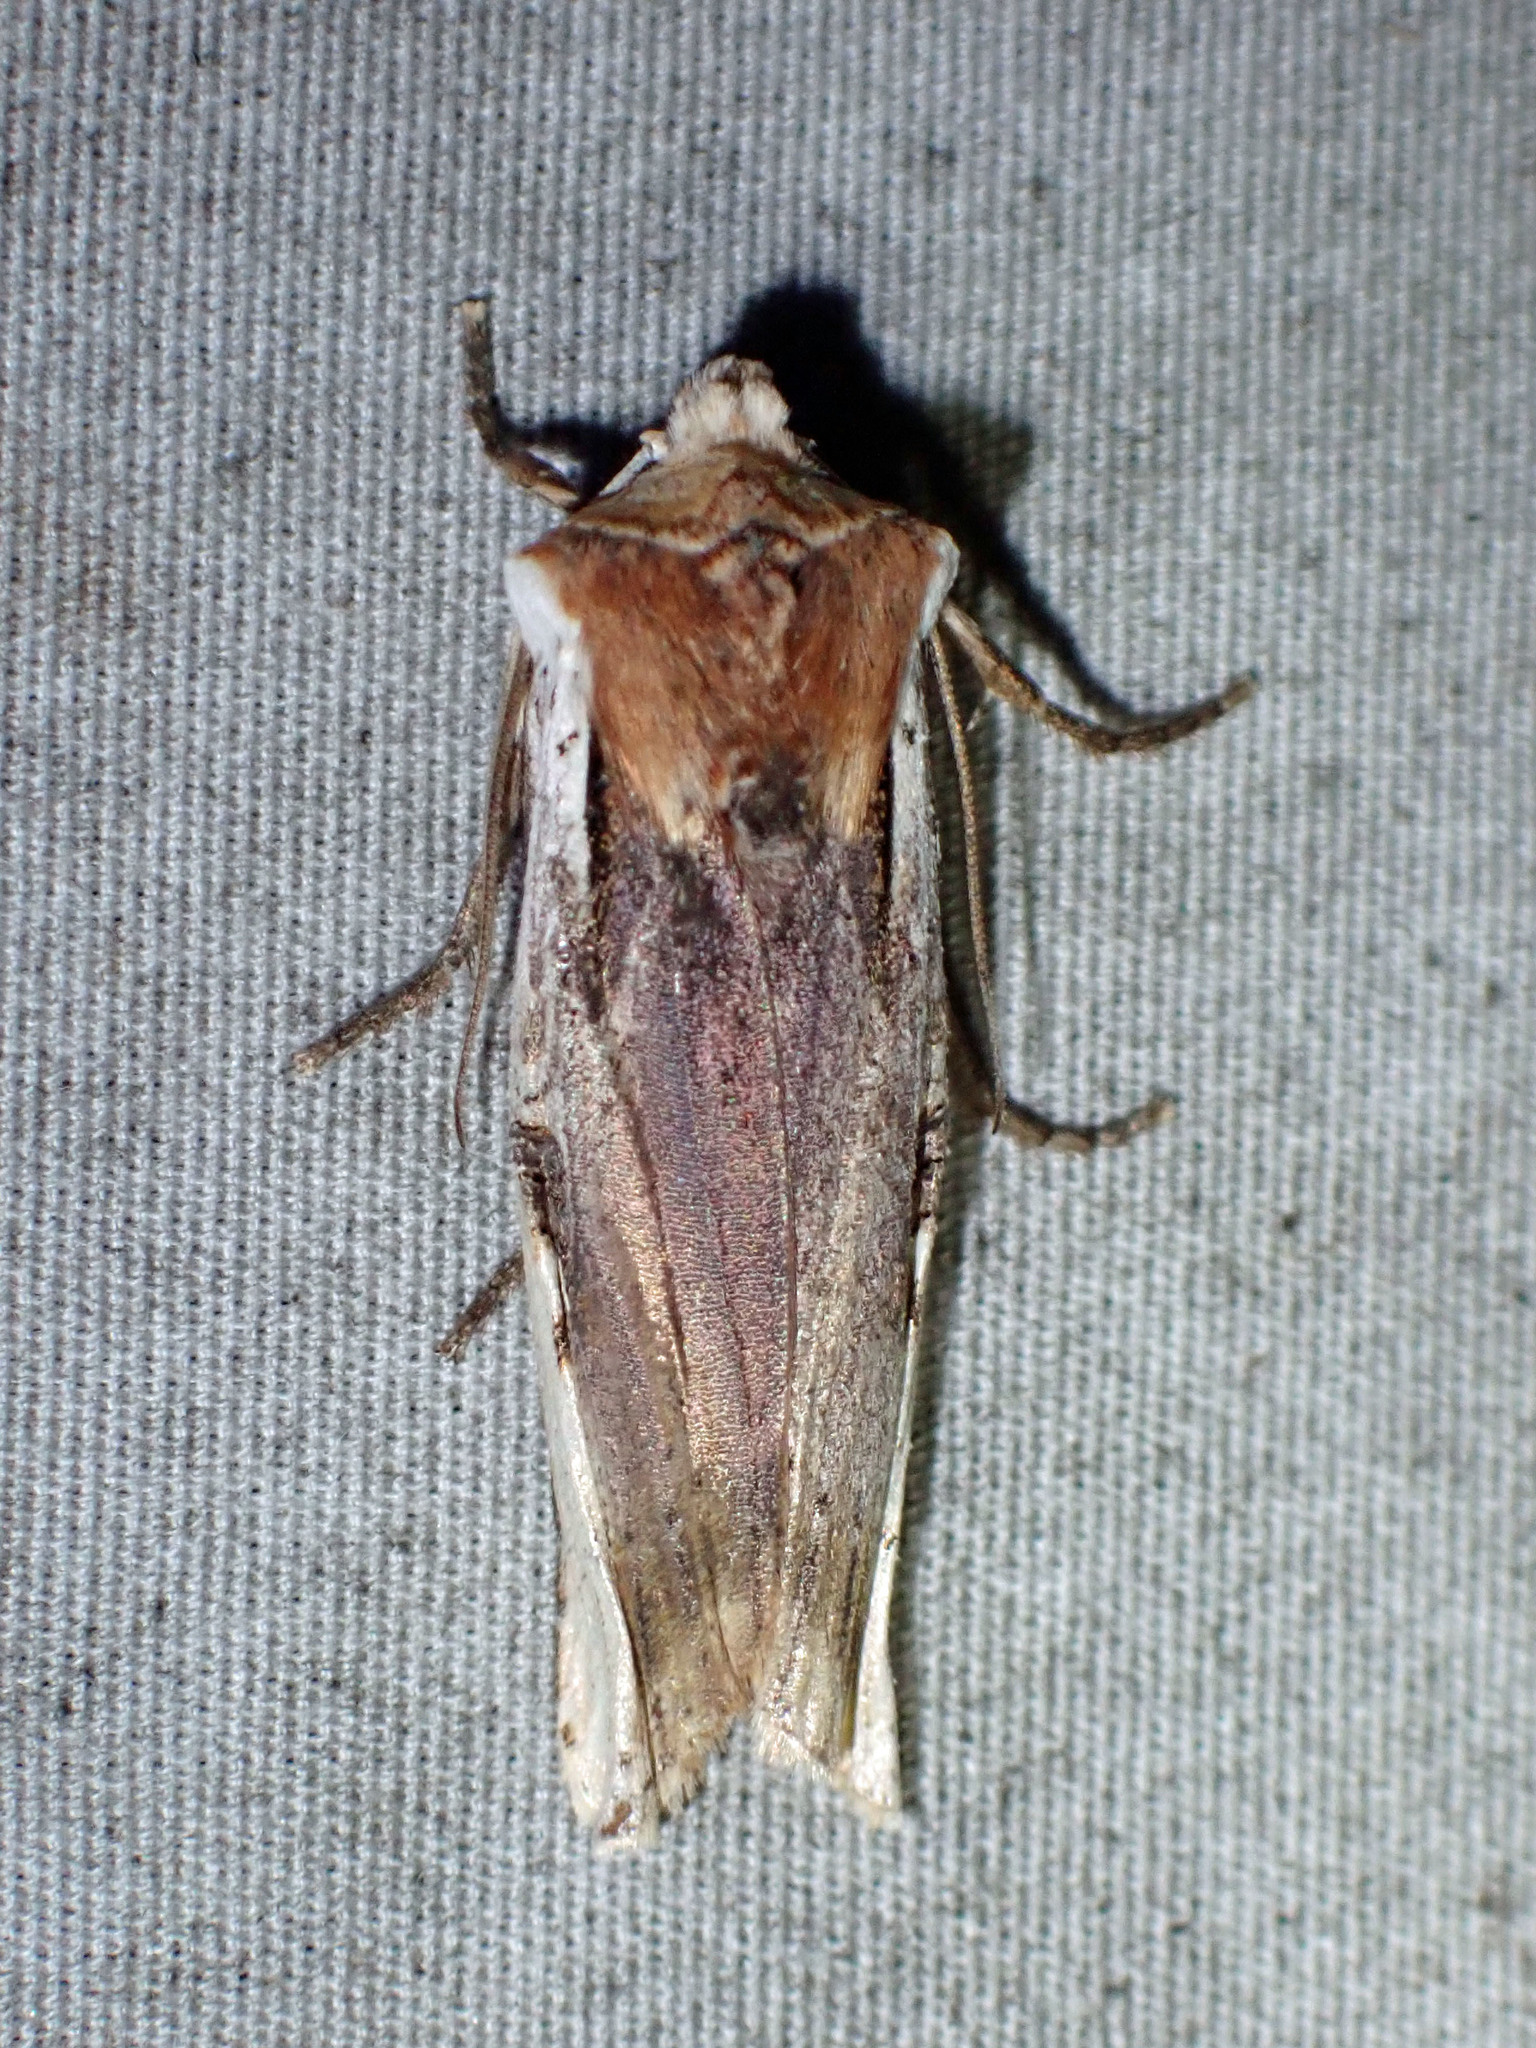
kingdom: Animalia
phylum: Arthropoda
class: Insecta
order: Lepidoptera
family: Noctuidae
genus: Xylena
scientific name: Xylena curvimacula
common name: Dot-and-dash swordgrass moth
